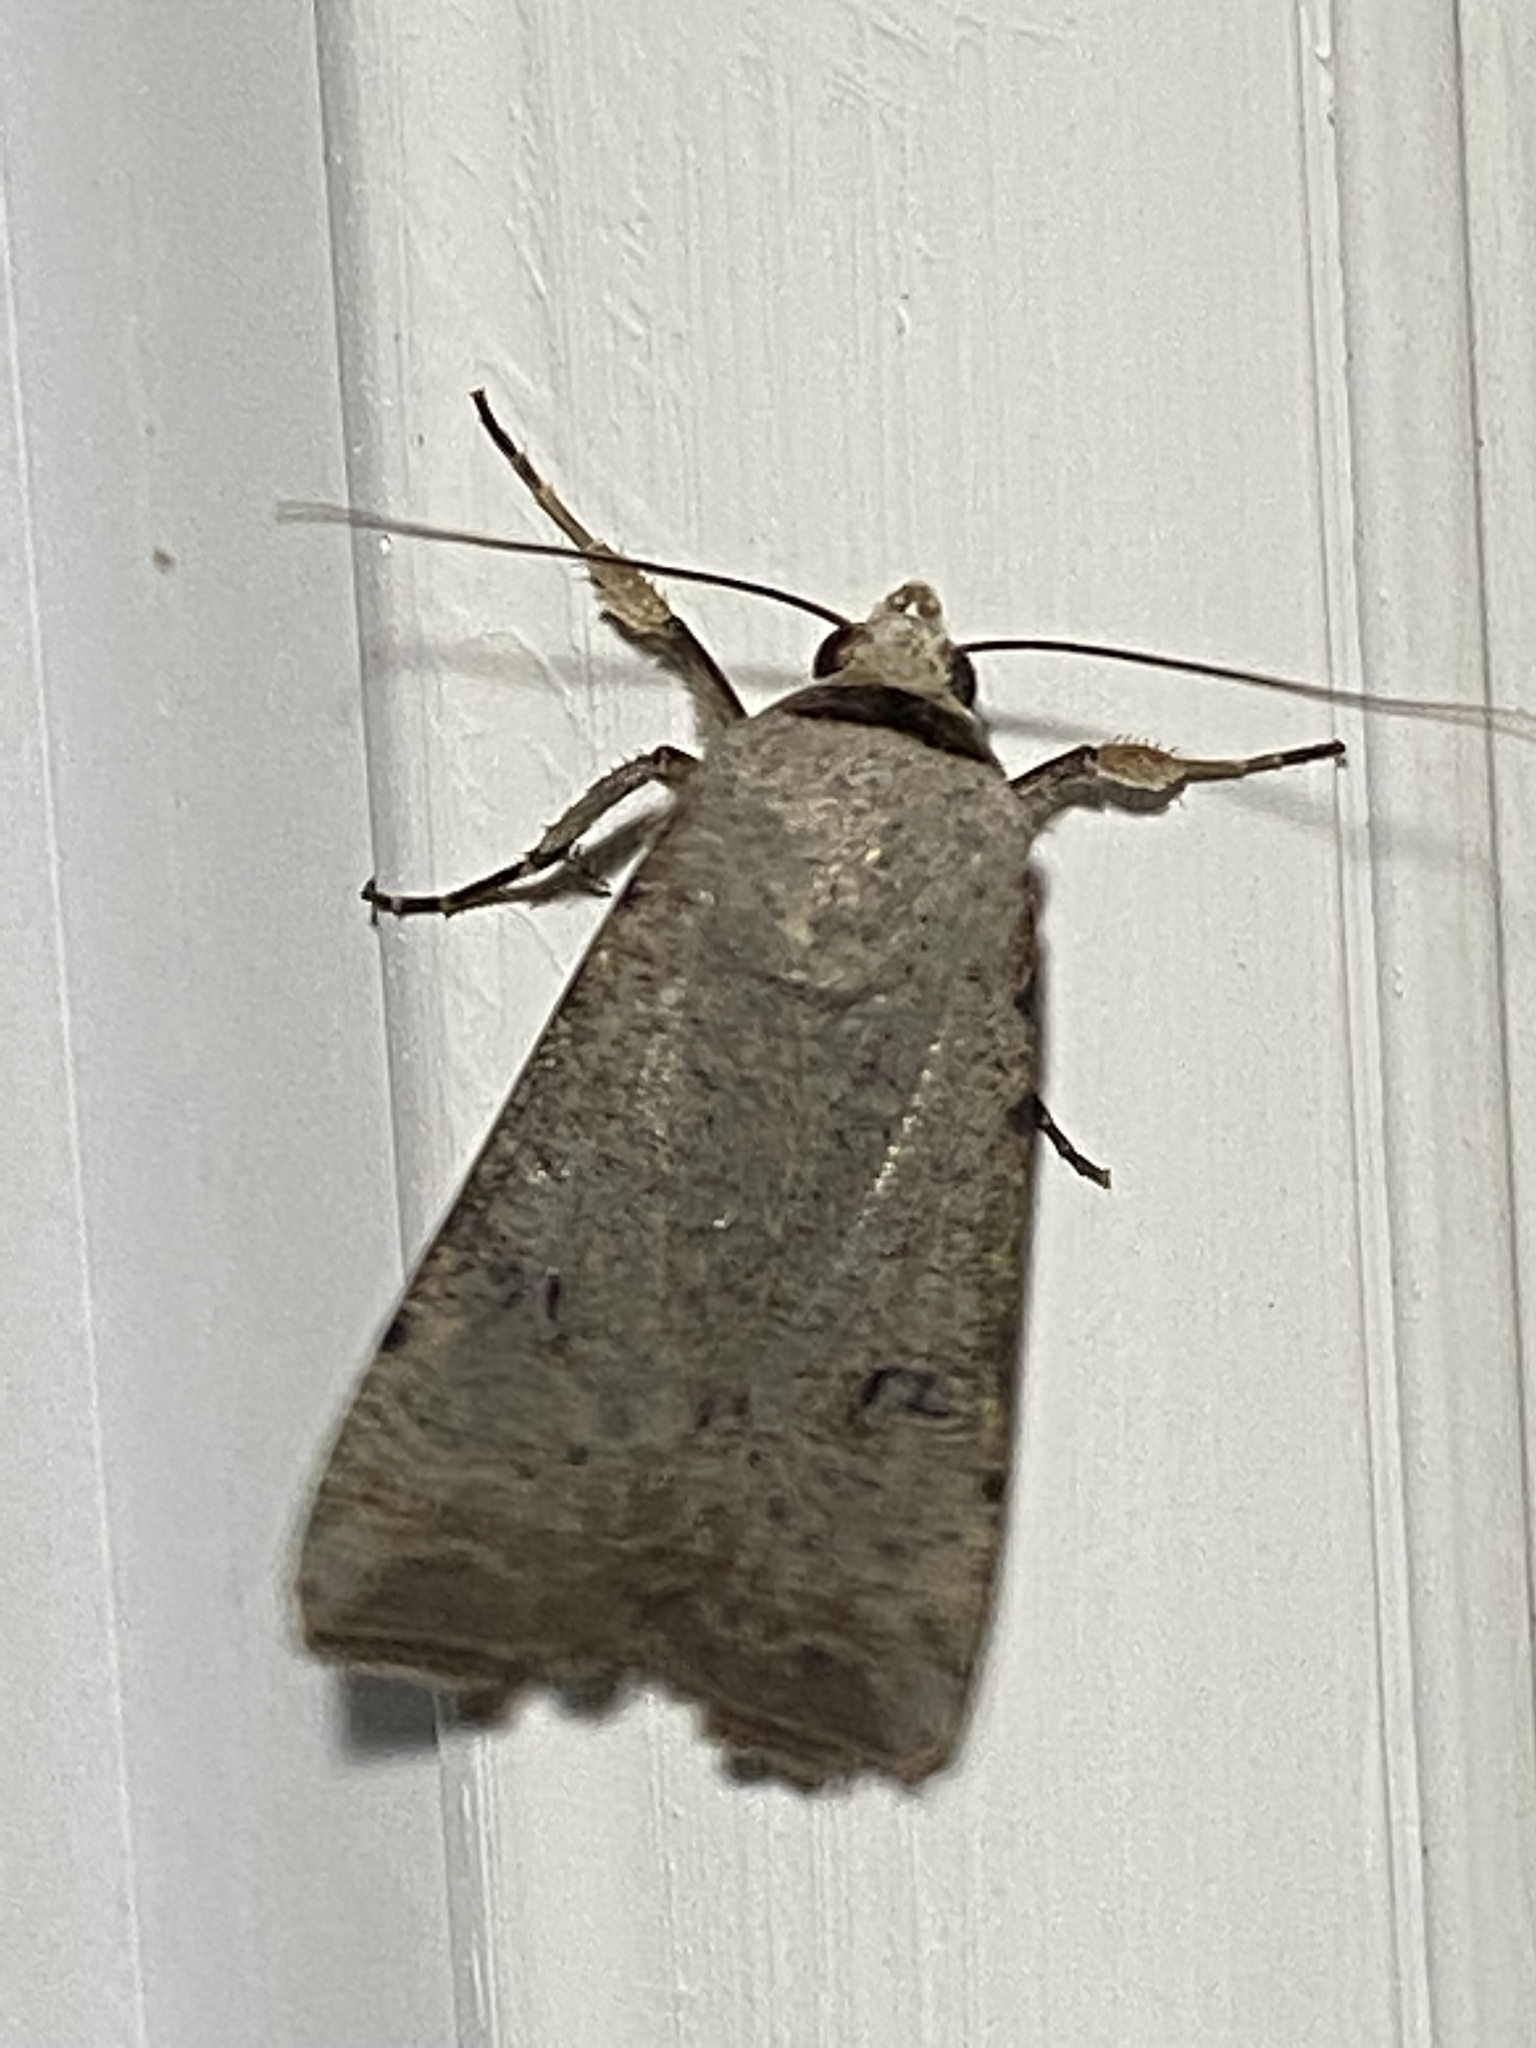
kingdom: Animalia
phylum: Arthropoda
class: Insecta
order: Lepidoptera
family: Noctuidae
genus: Anicla
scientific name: Anicla infecta
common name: Green cutworm
